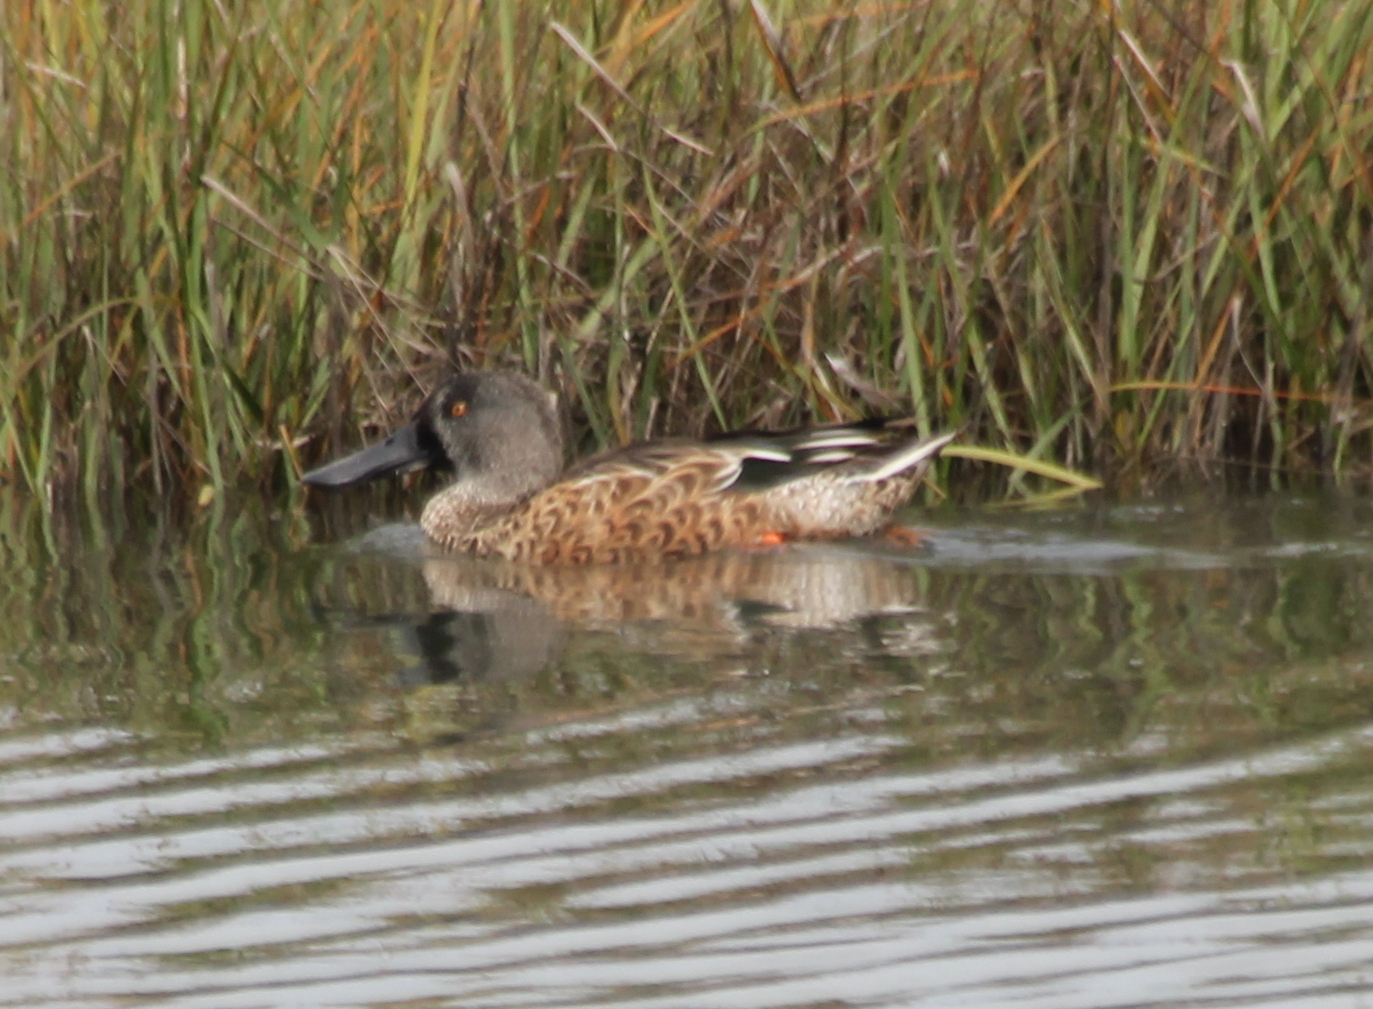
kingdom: Animalia
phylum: Chordata
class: Aves
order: Anseriformes
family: Anatidae
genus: Spatula
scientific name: Spatula clypeata
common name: Northern shoveler
